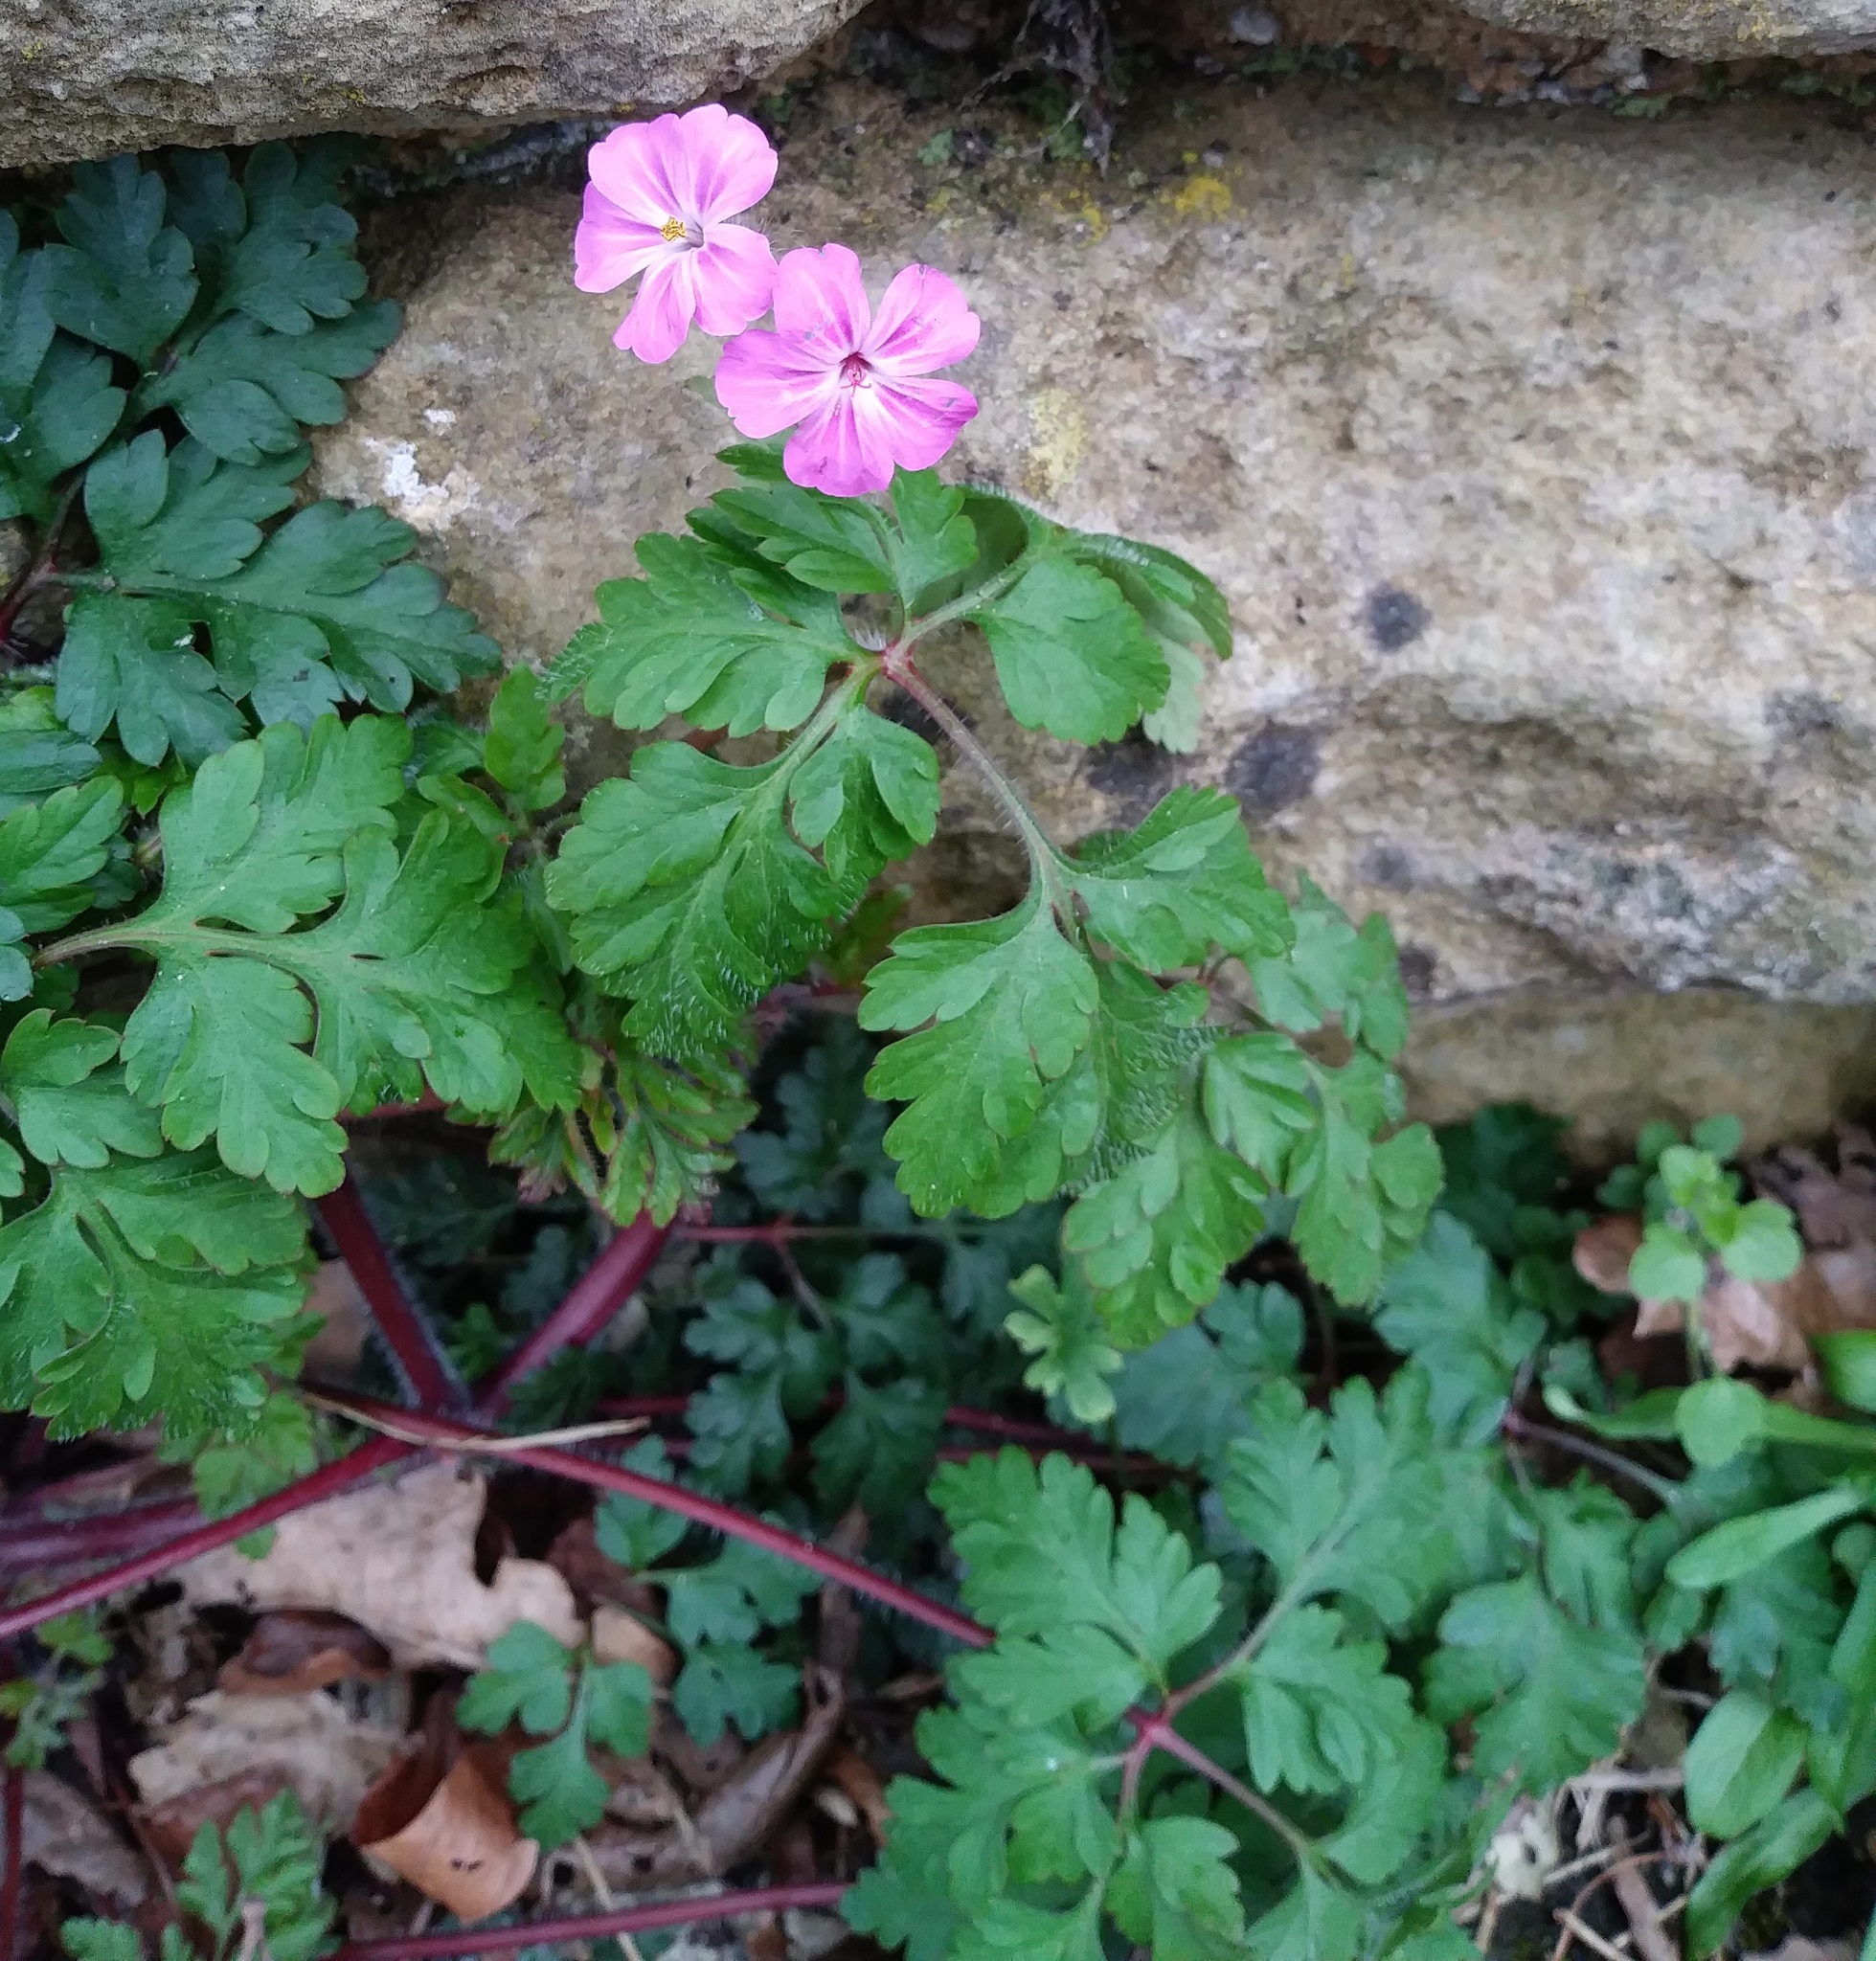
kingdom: Plantae
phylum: Tracheophyta
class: Magnoliopsida
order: Geraniales
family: Geraniaceae
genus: Geranium
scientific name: Geranium robertianum
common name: Herb-robert
